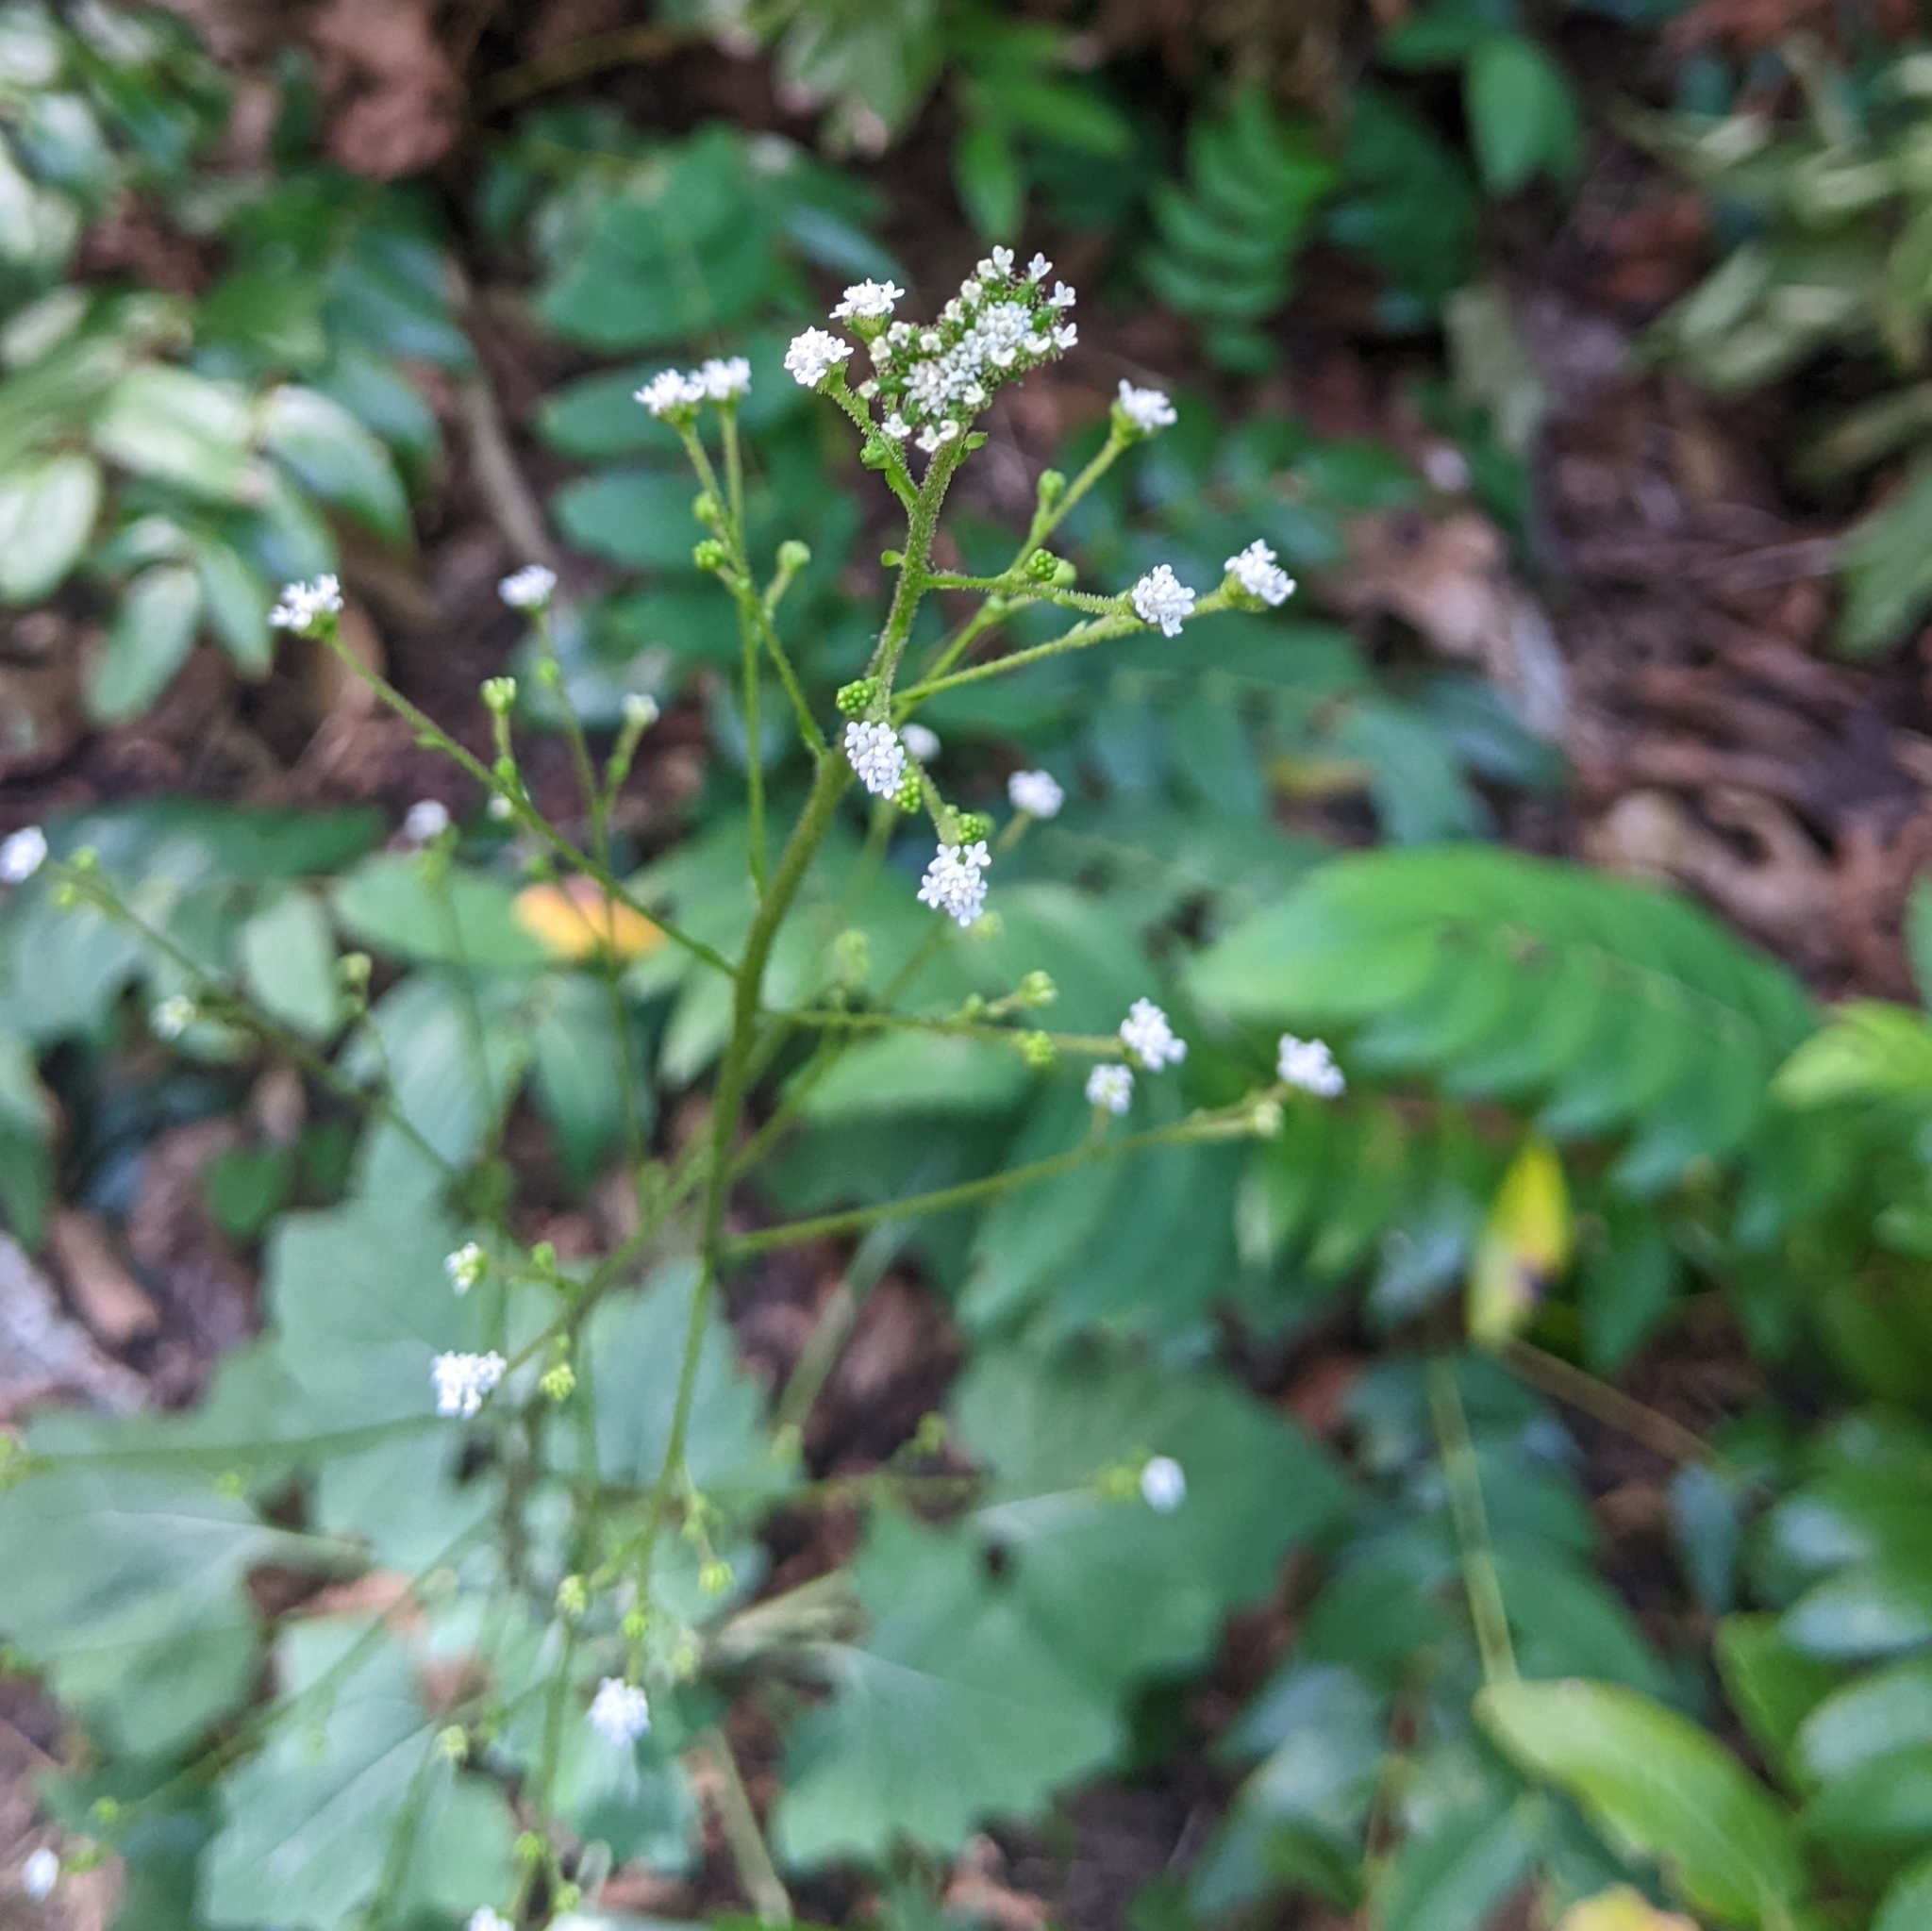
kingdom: Plantae
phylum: Tracheophyta
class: Magnoliopsida
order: Asterales
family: Asteraceae
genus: Adenocaulon
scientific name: Adenocaulon bicolor
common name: Trailplant
